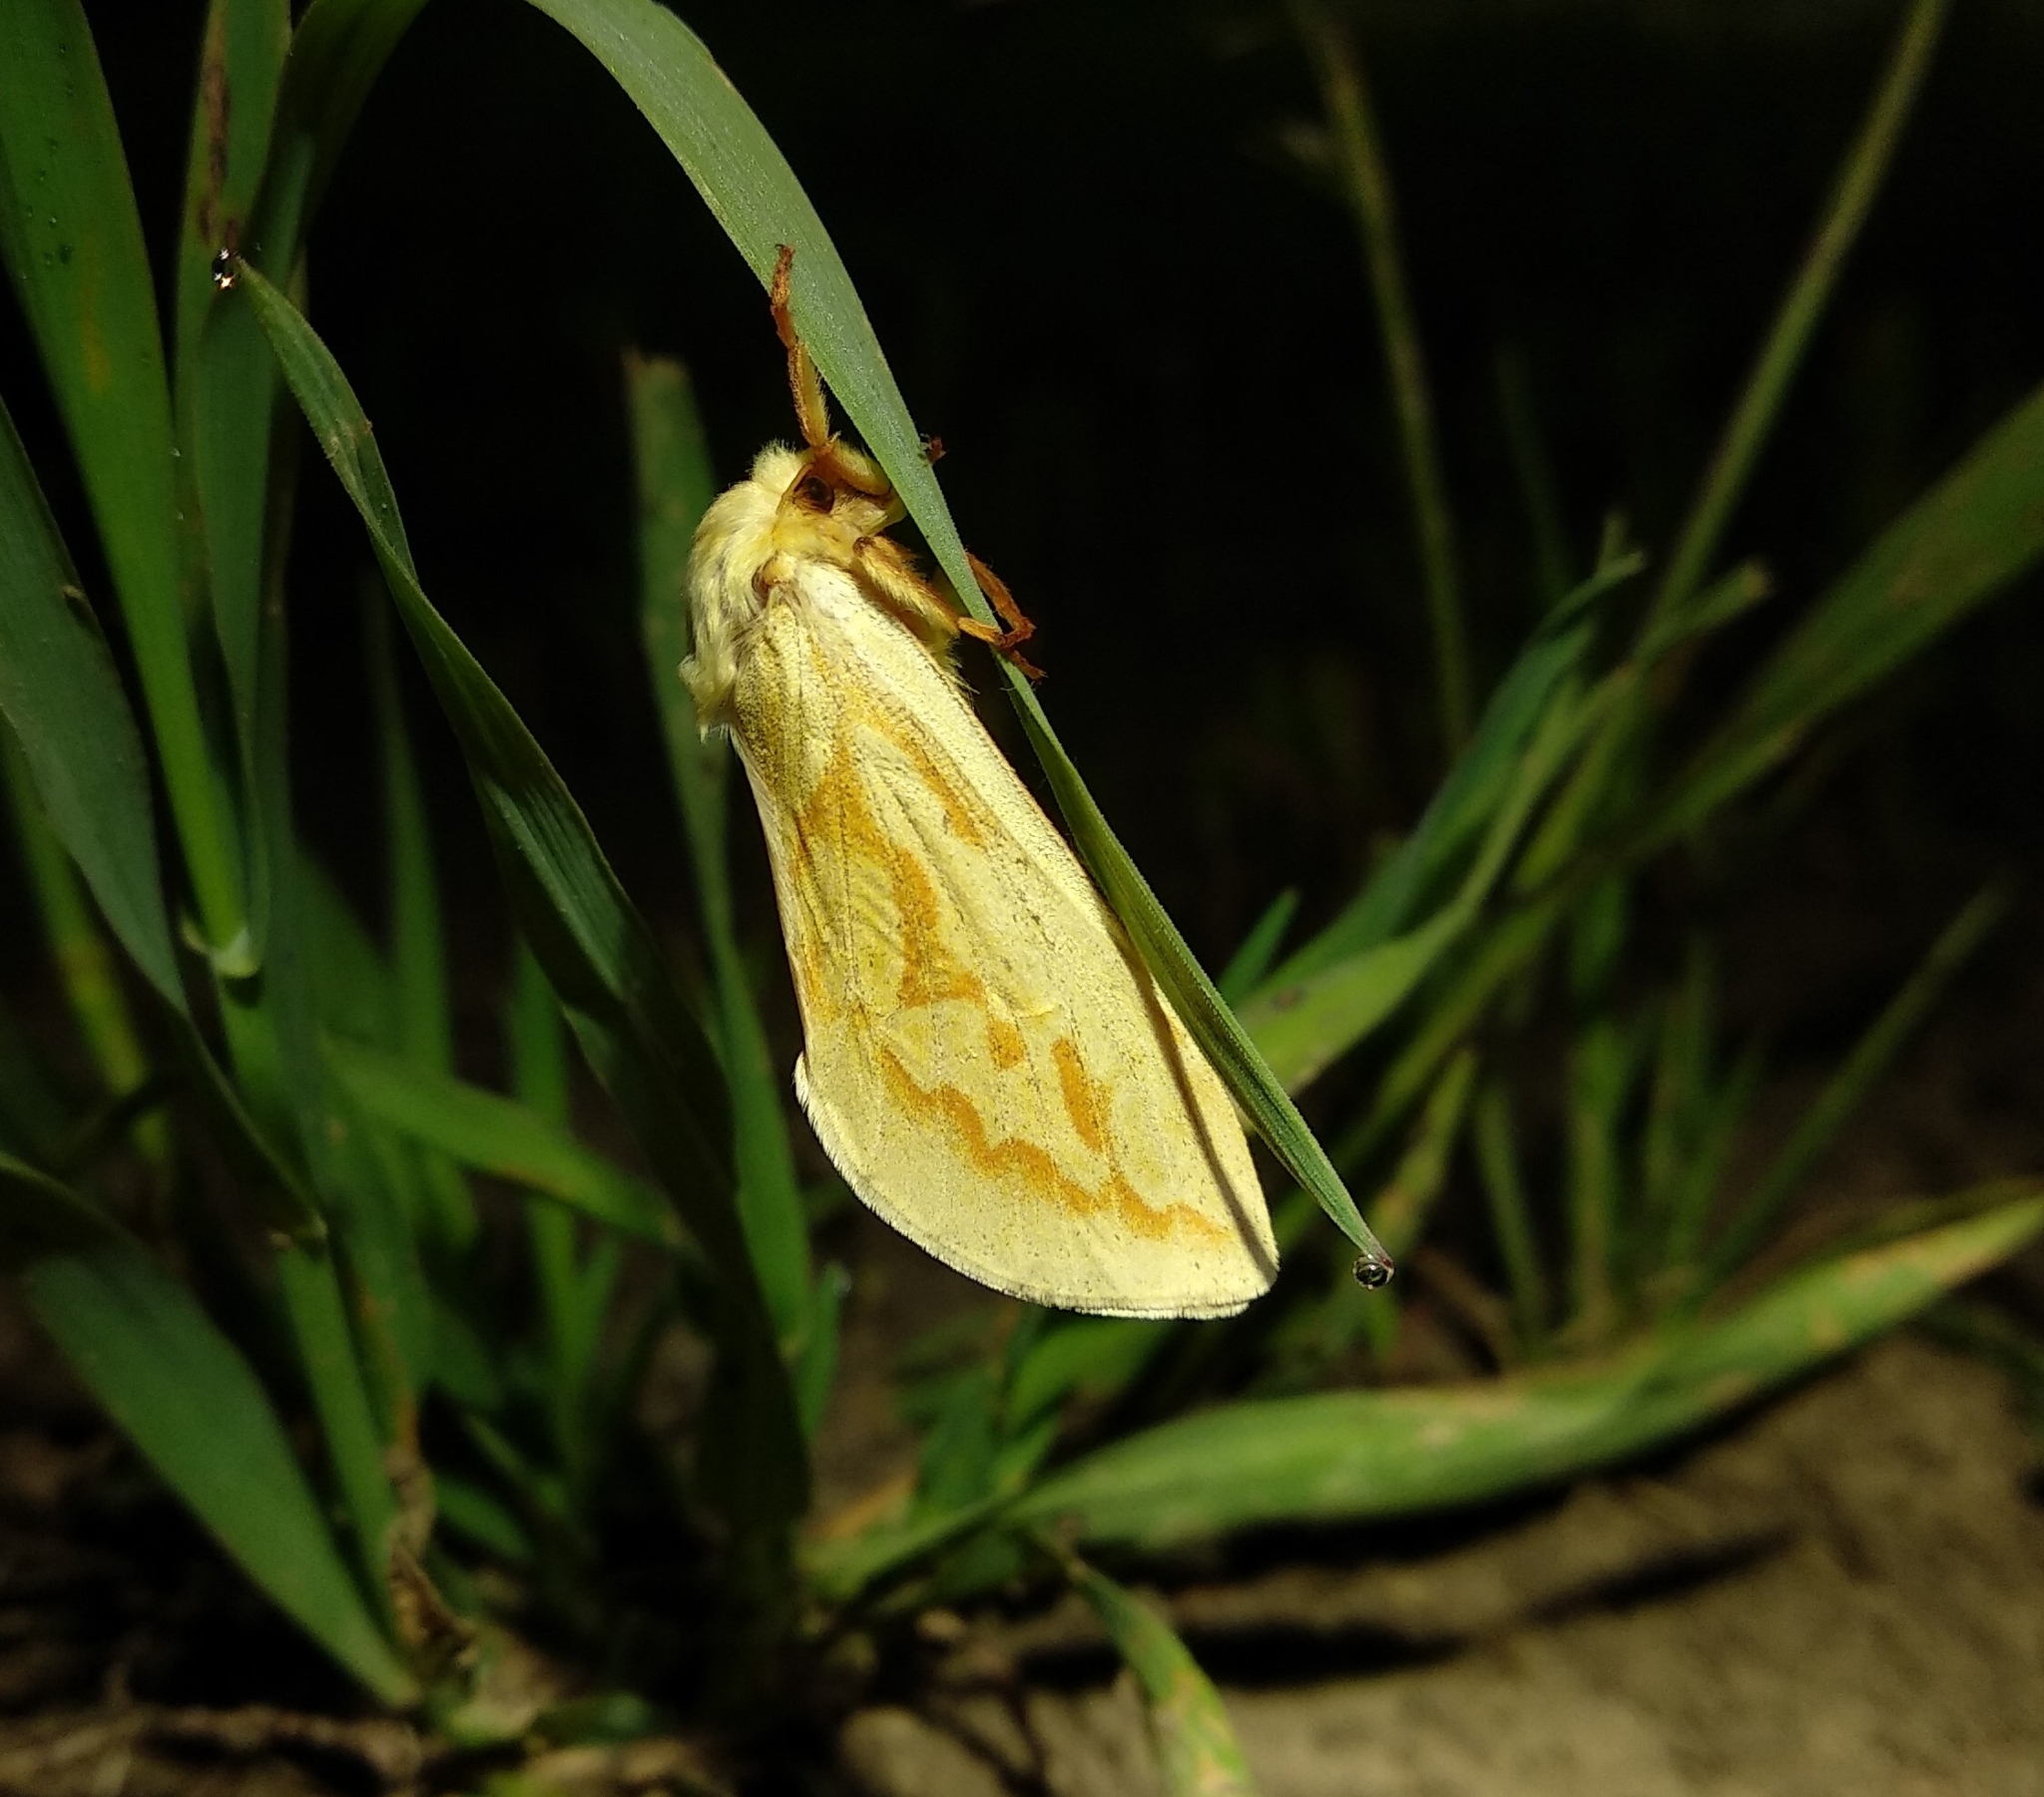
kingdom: Animalia
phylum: Arthropoda
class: Insecta
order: Lepidoptera
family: Hepialidae
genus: Hepialus
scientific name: Hepialus humuli
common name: Ghost moth
